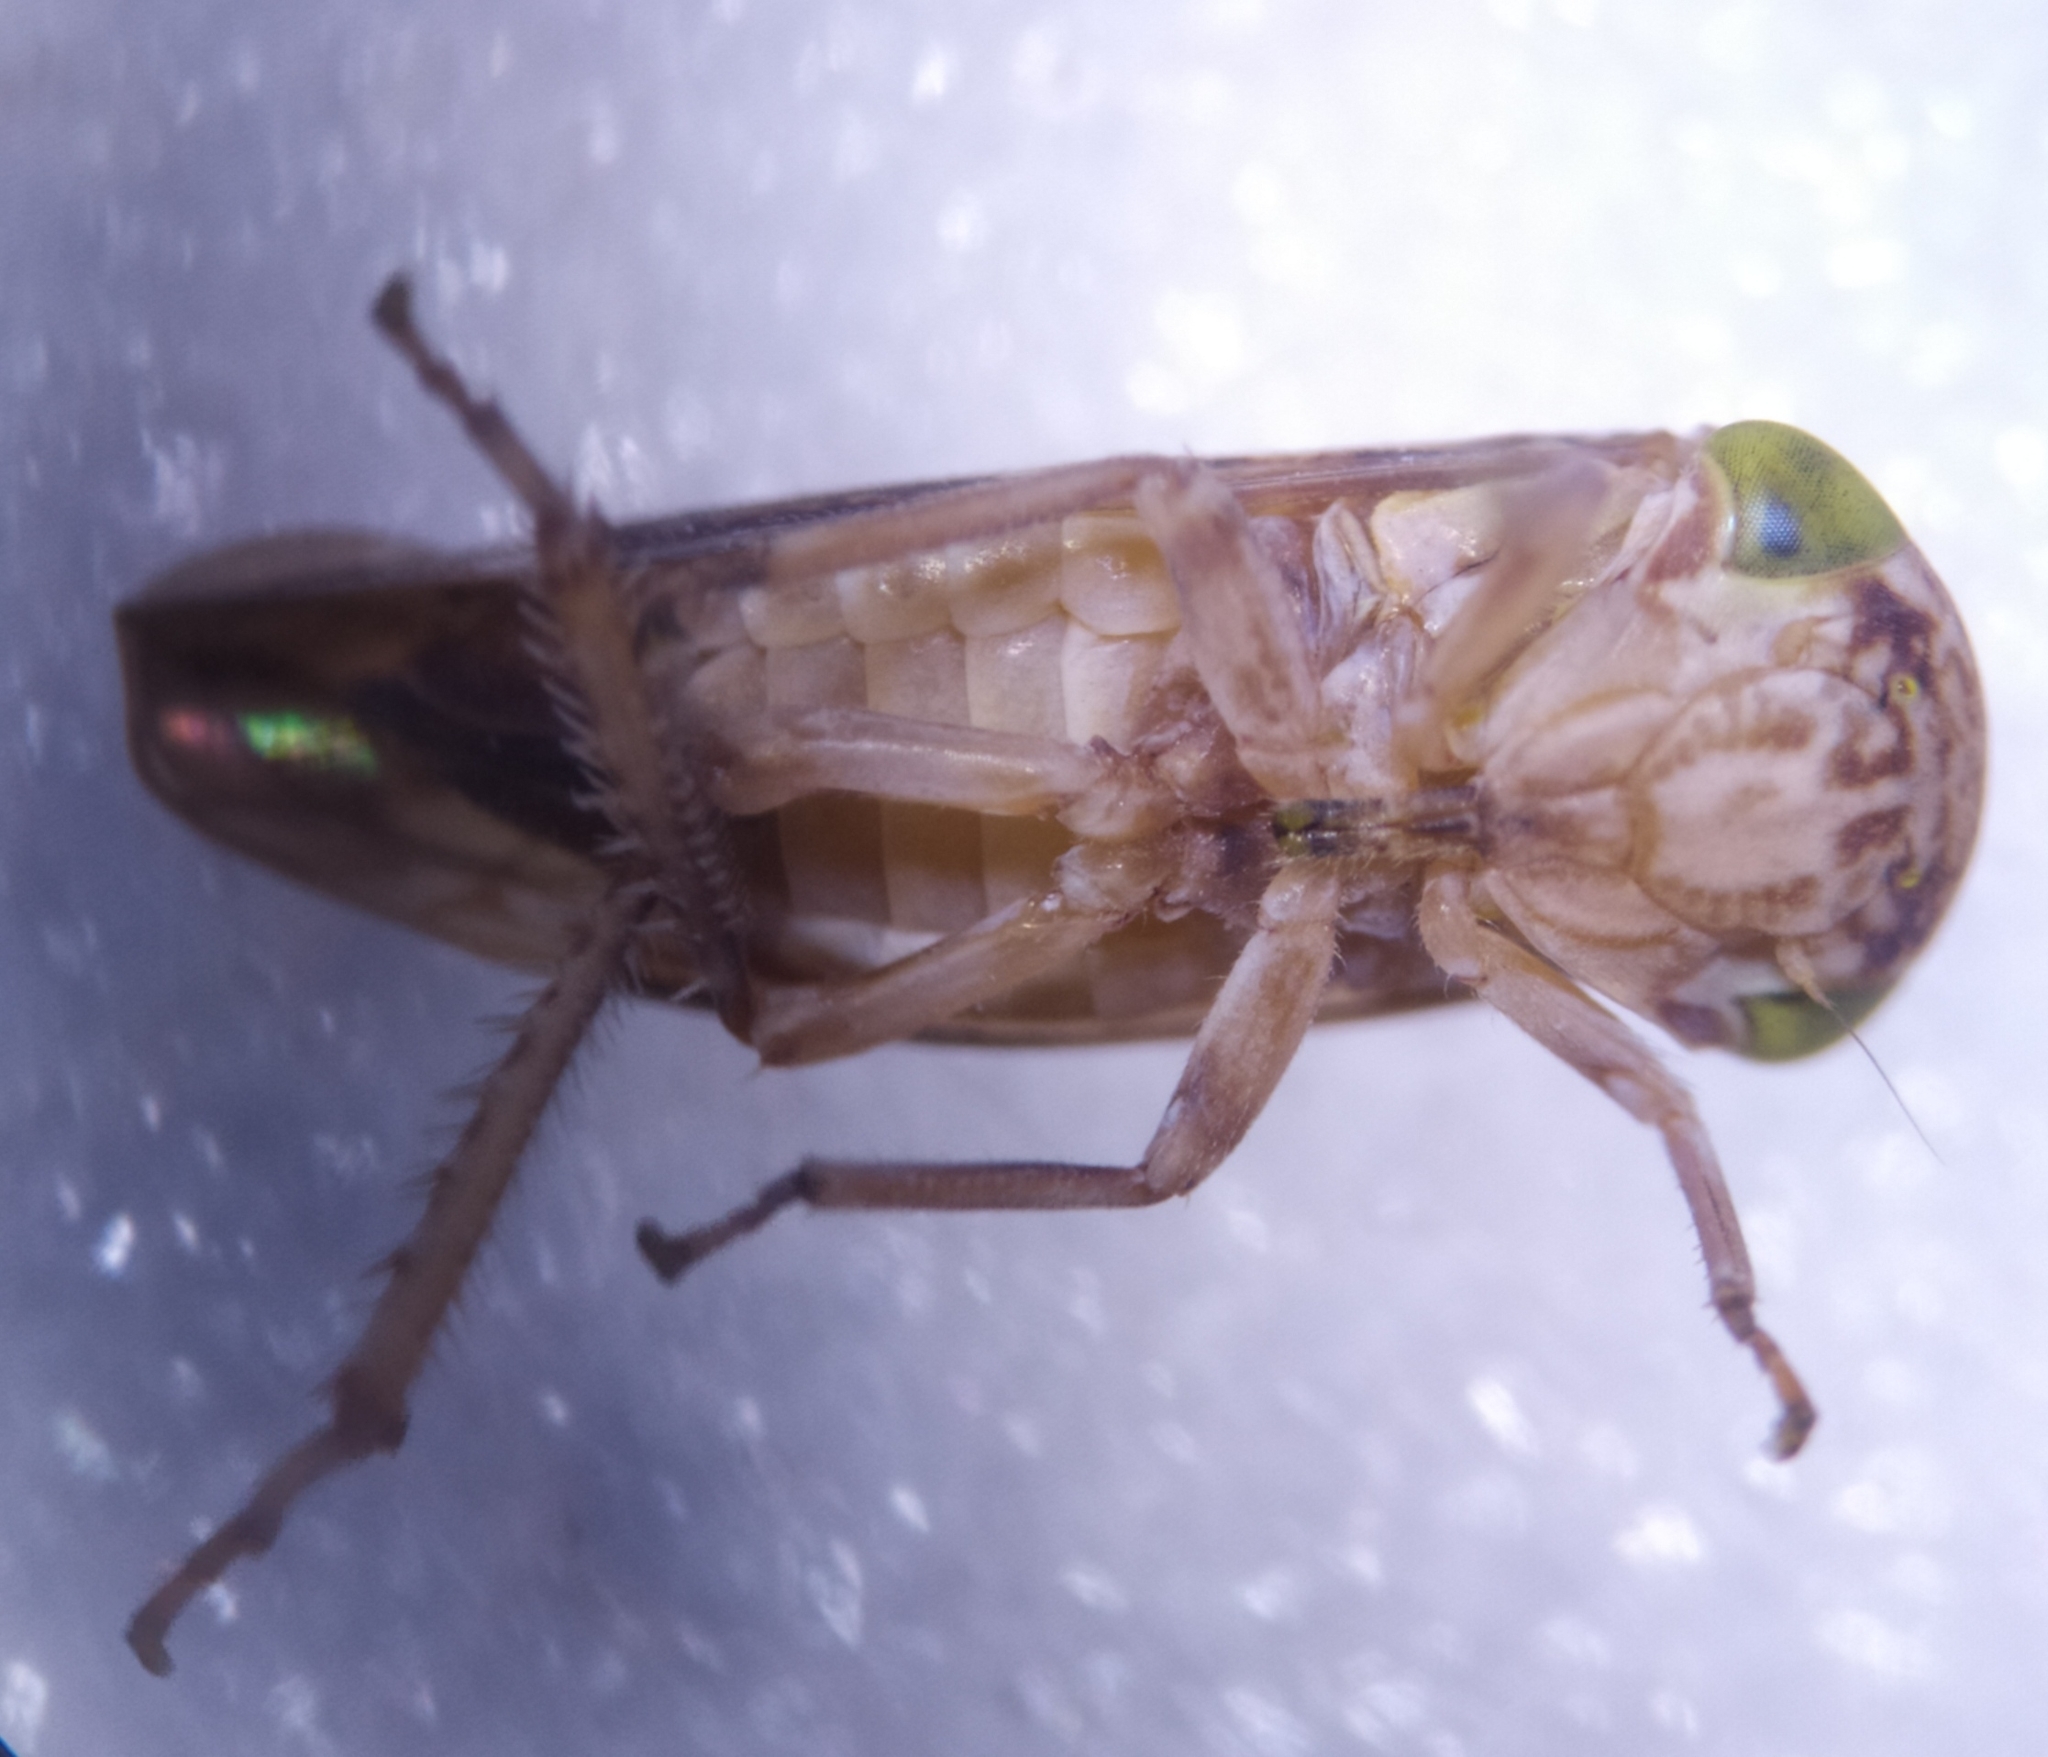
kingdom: Animalia
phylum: Arthropoda
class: Insecta
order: Hemiptera
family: Cicadellidae
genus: Acericerus
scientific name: Acericerus ribauti
